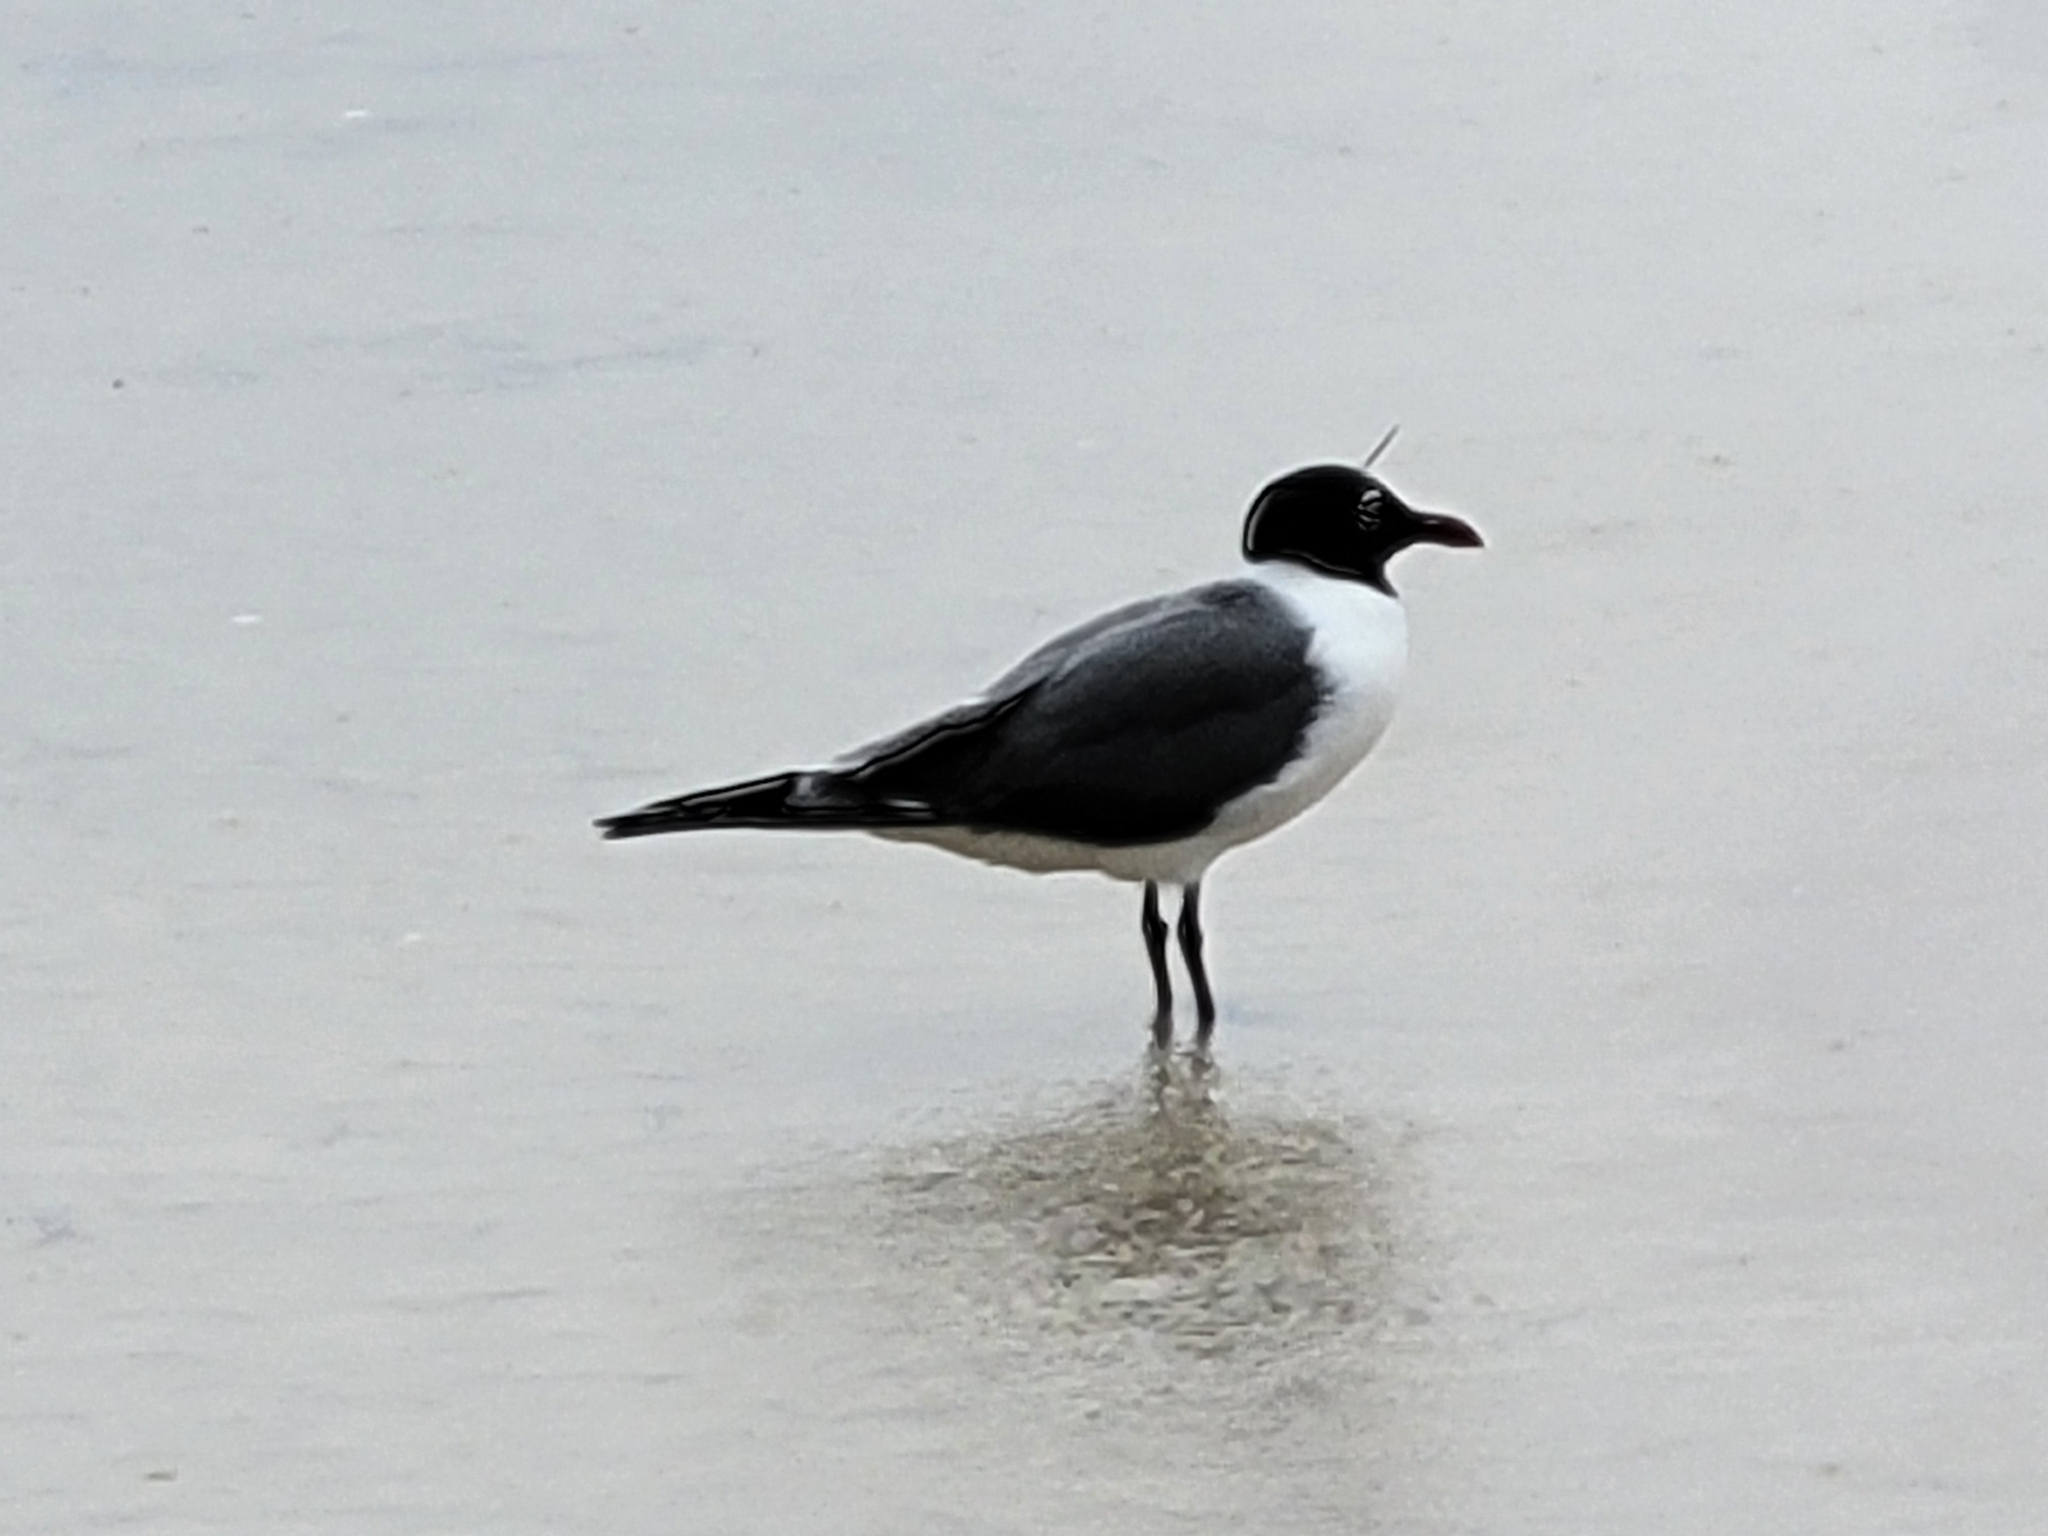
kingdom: Animalia
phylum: Chordata
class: Aves
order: Charadriiformes
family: Laridae
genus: Leucophaeus
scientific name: Leucophaeus atricilla
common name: Laughing gull
